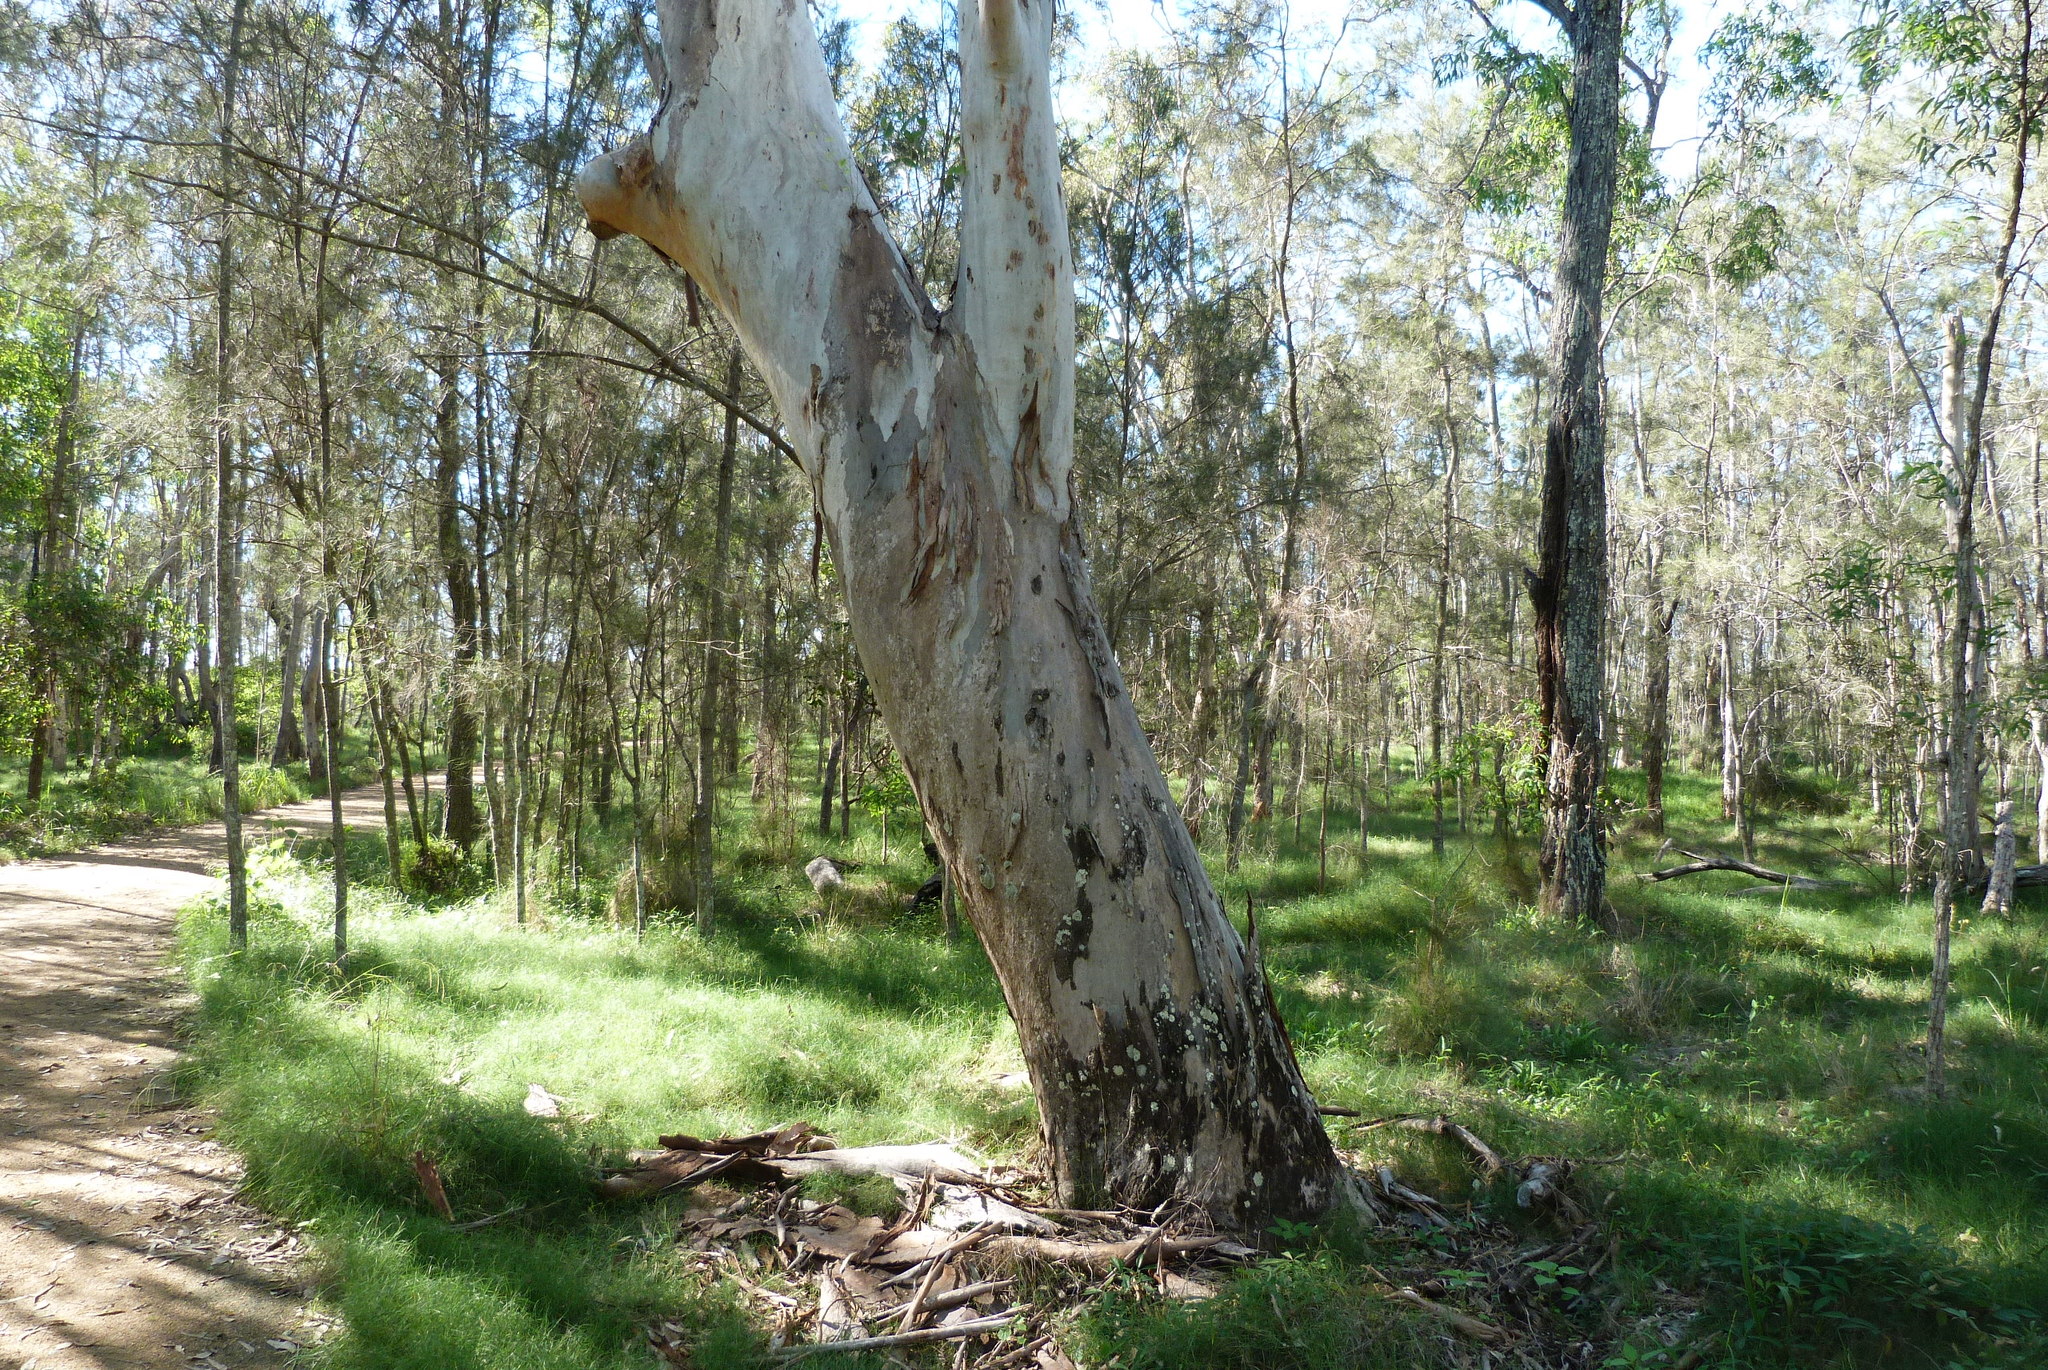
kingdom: Plantae
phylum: Tracheophyta
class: Magnoliopsida
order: Myrtales
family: Myrtaceae
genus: Eucalyptus
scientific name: Eucalyptus tereticornis
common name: Forest redgum
